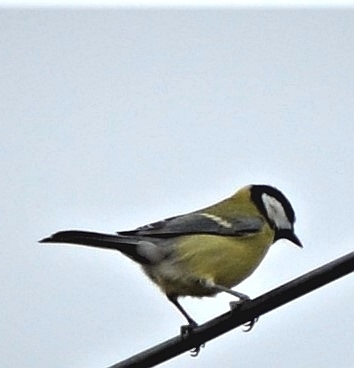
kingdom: Animalia
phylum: Chordata
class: Aves
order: Passeriformes
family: Paridae
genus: Parus
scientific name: Parus major
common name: Great tit
